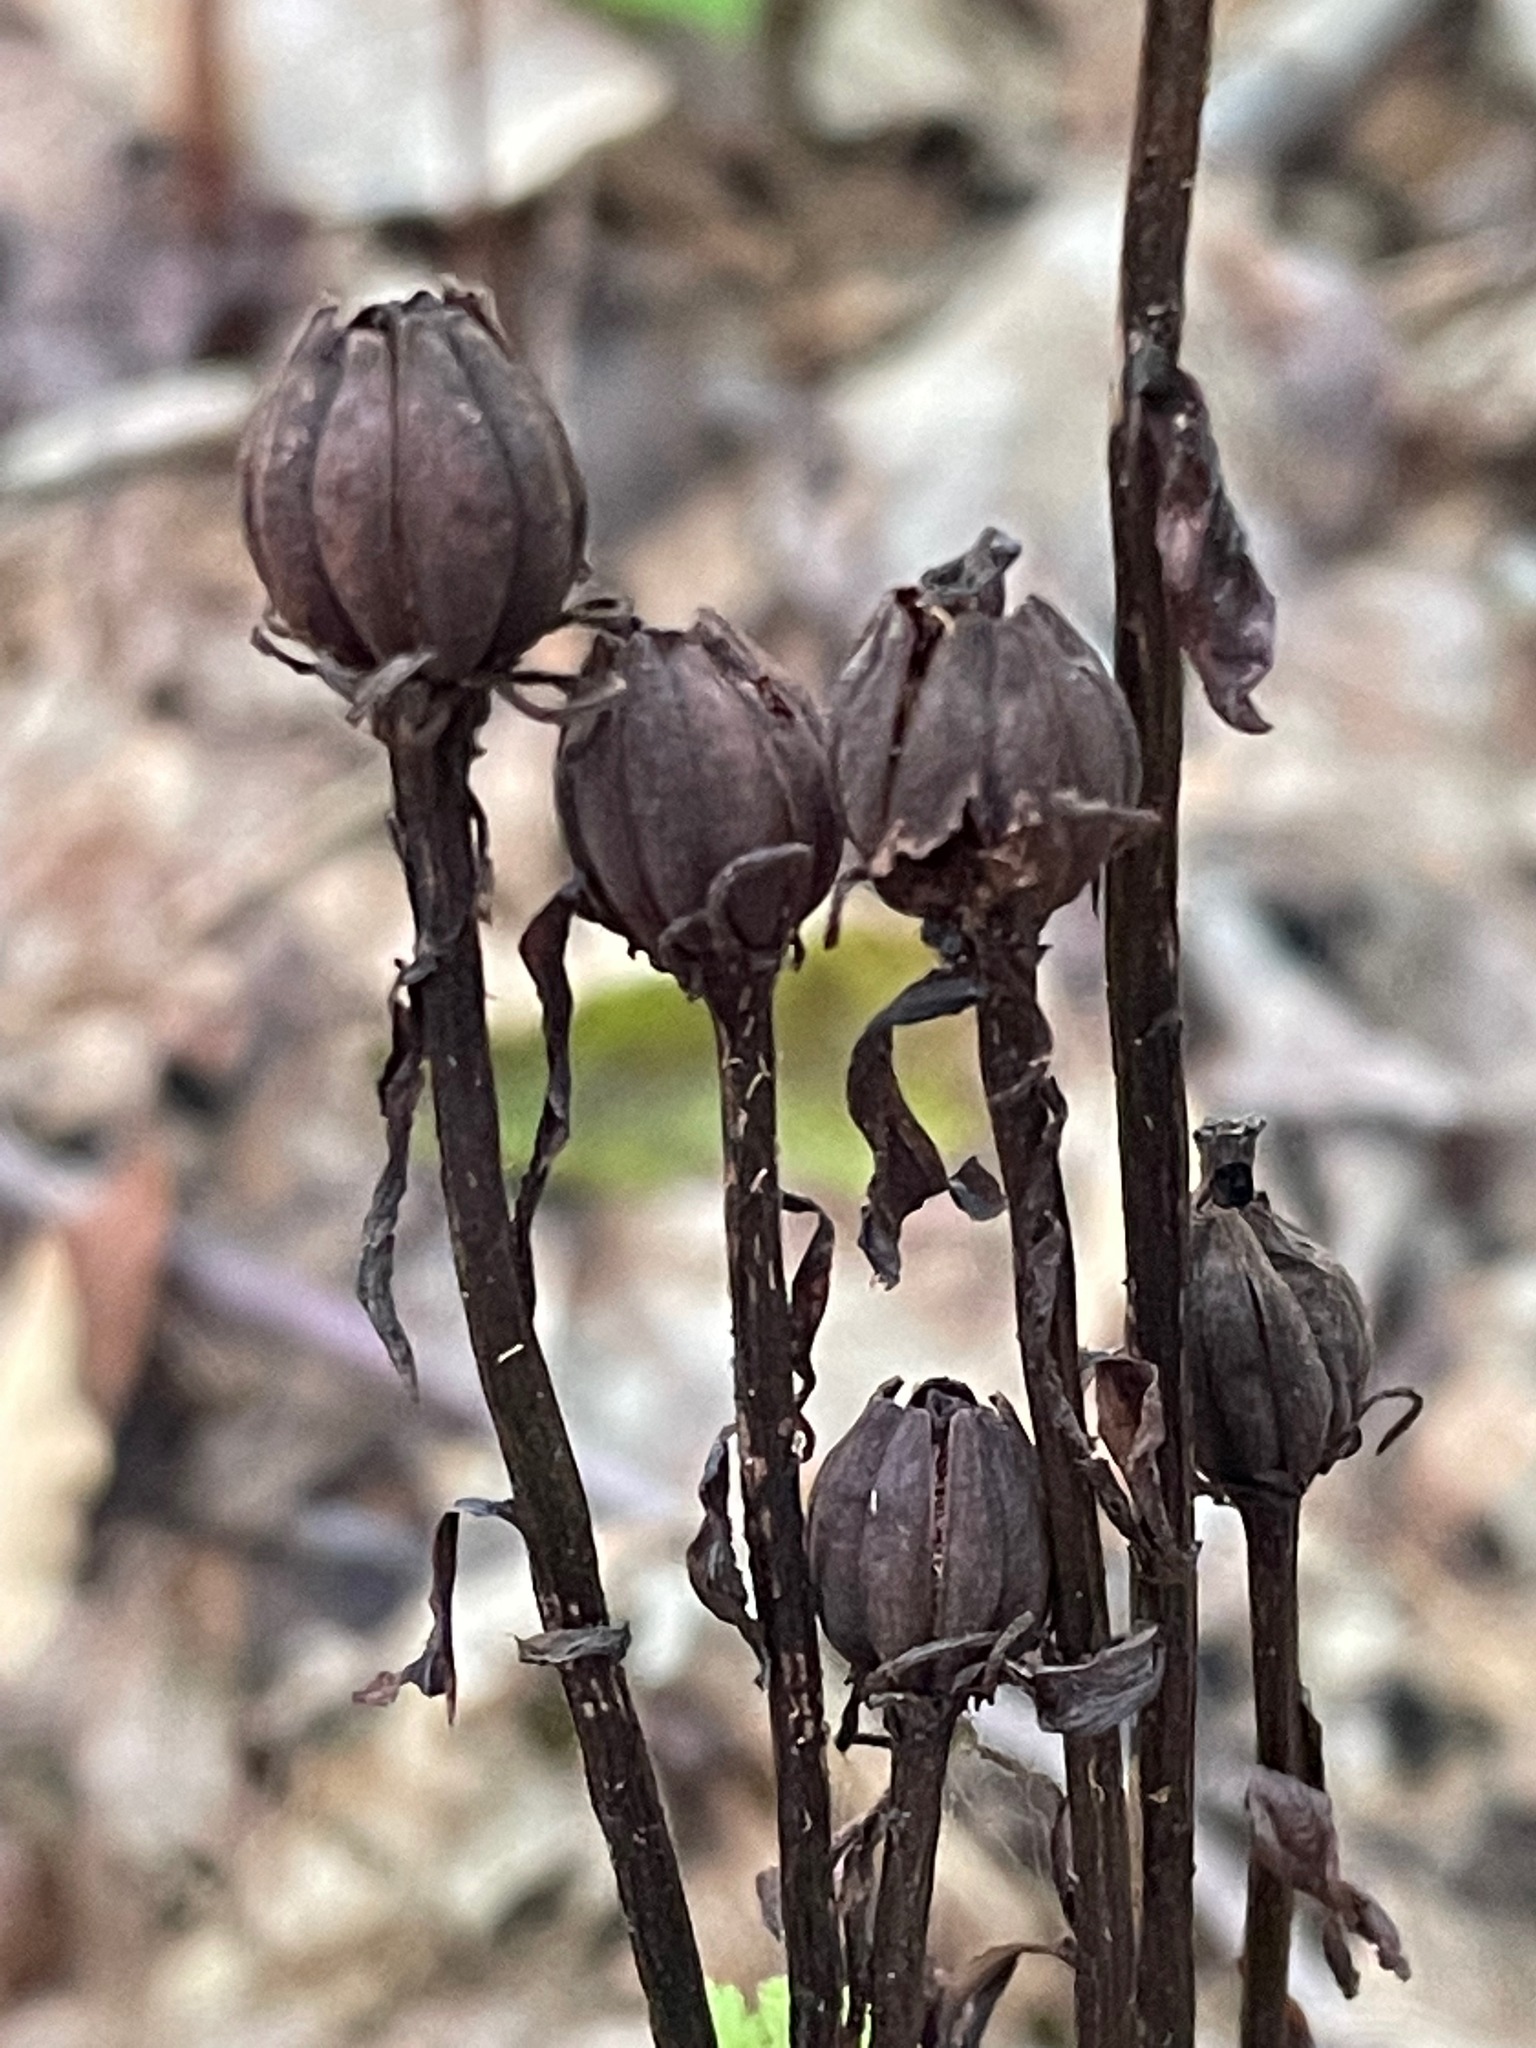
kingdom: Plantae
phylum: Tracheophyta
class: Magnoliopsida
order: Ericales
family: Ericaceae
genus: Monotropa
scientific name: Monotropa uniflora
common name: Convulsion root
